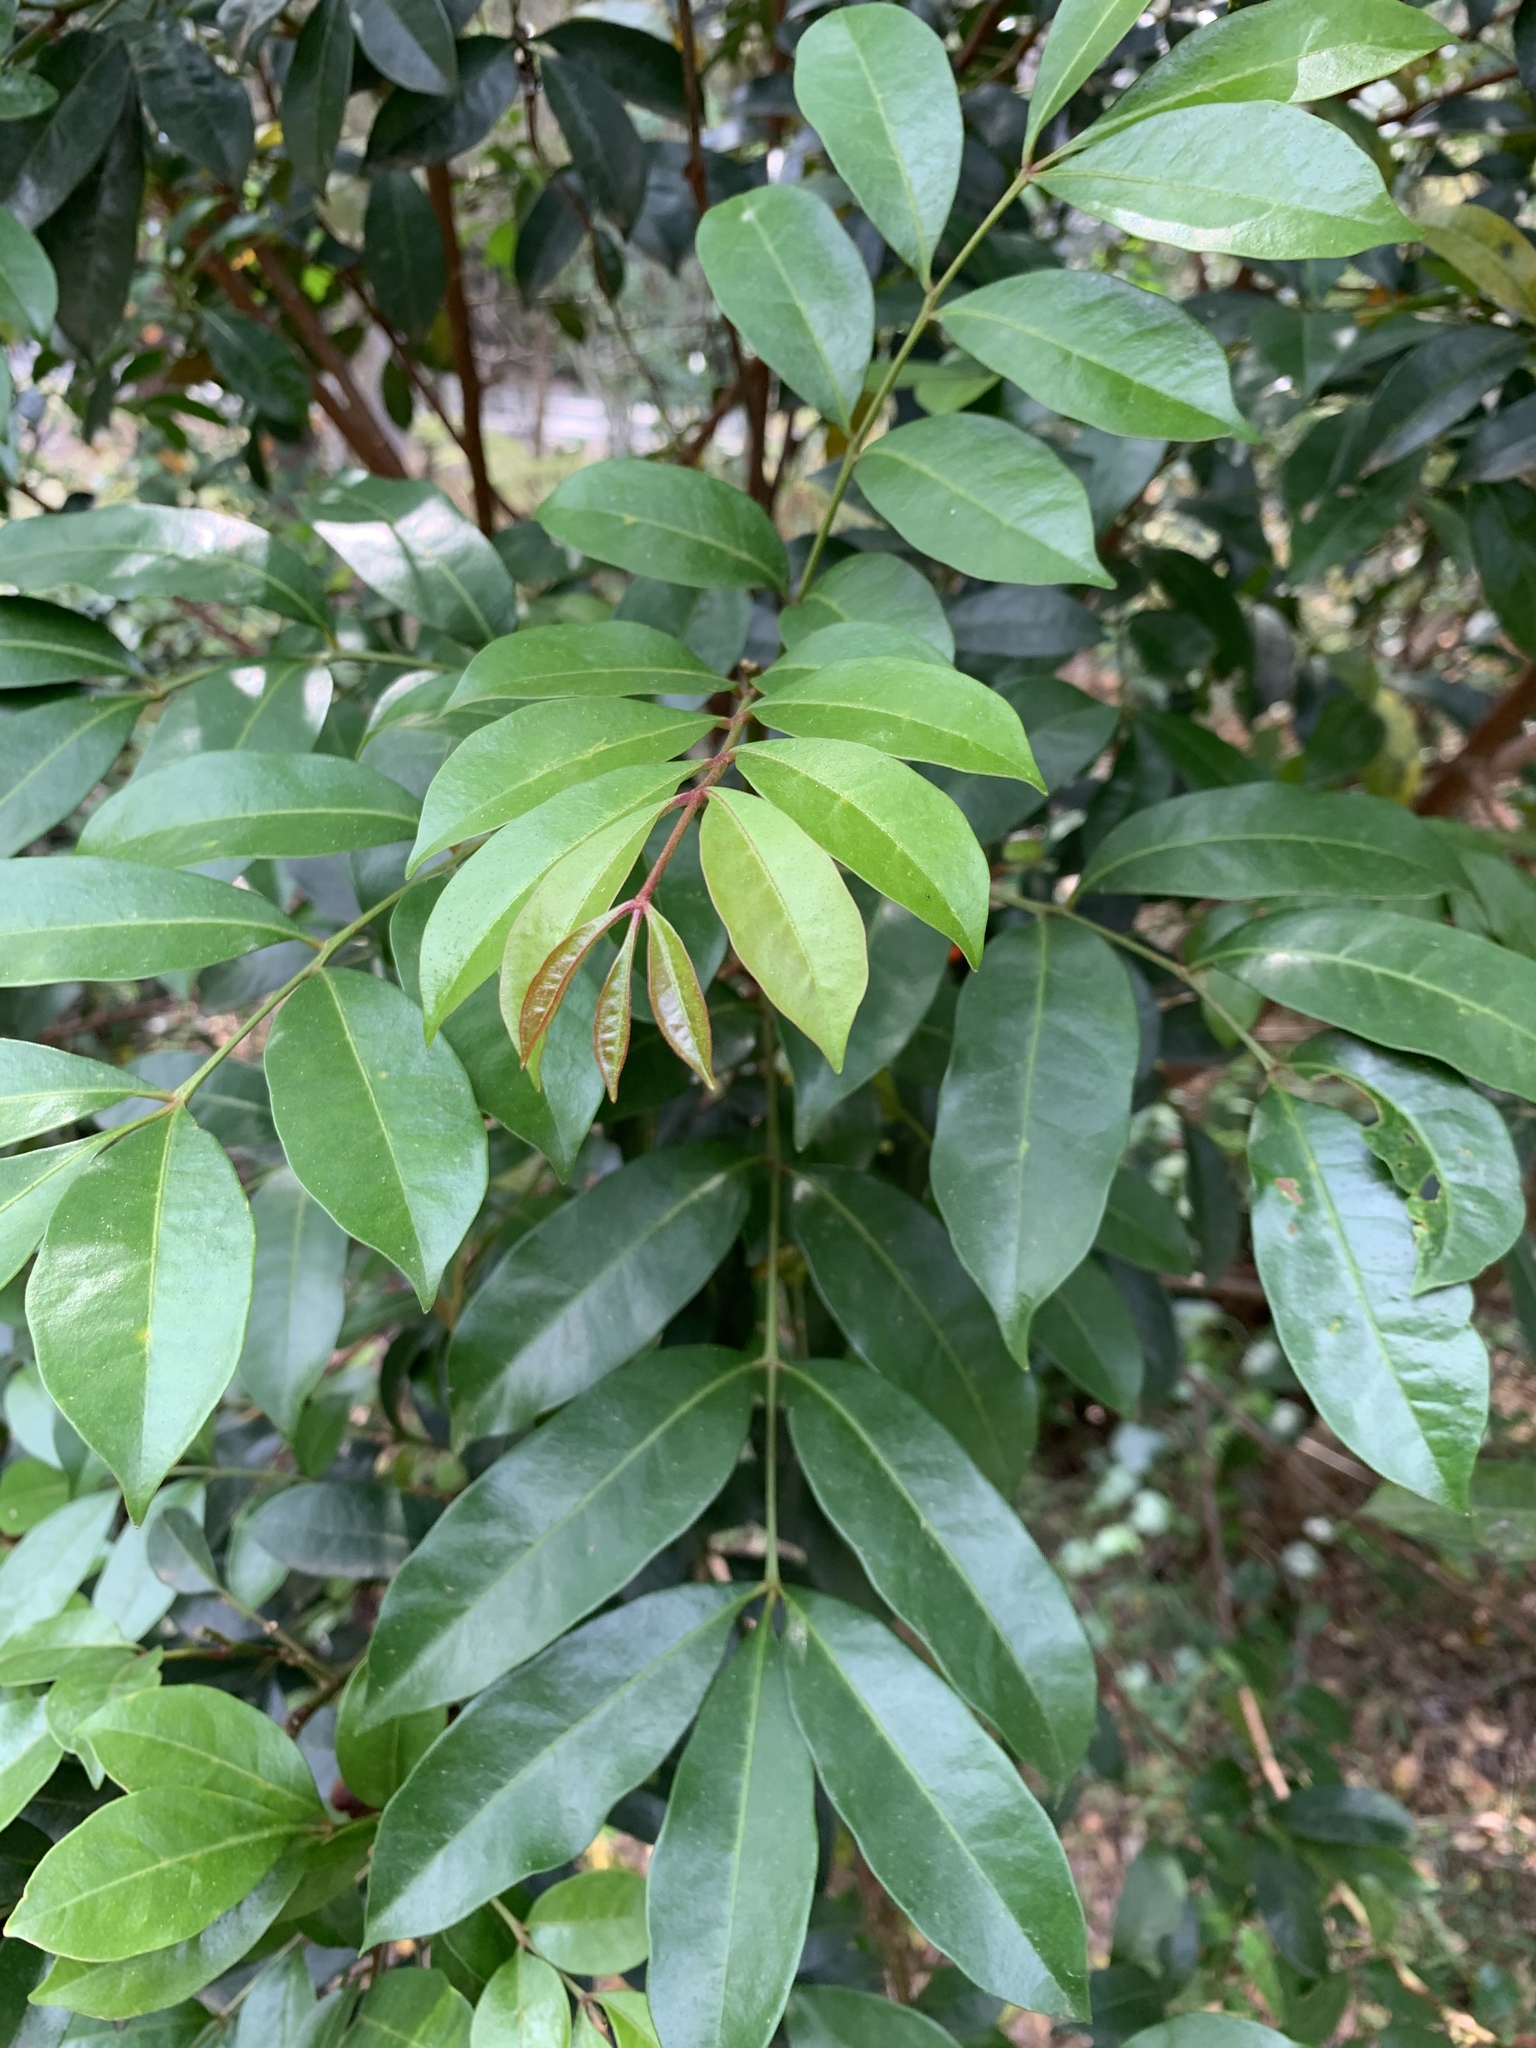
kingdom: Plantae
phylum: Tracheophyta
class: Magnoliopsida
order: Sapindales
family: Meliaceae
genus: Synoum
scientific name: Synoum glandulosum
